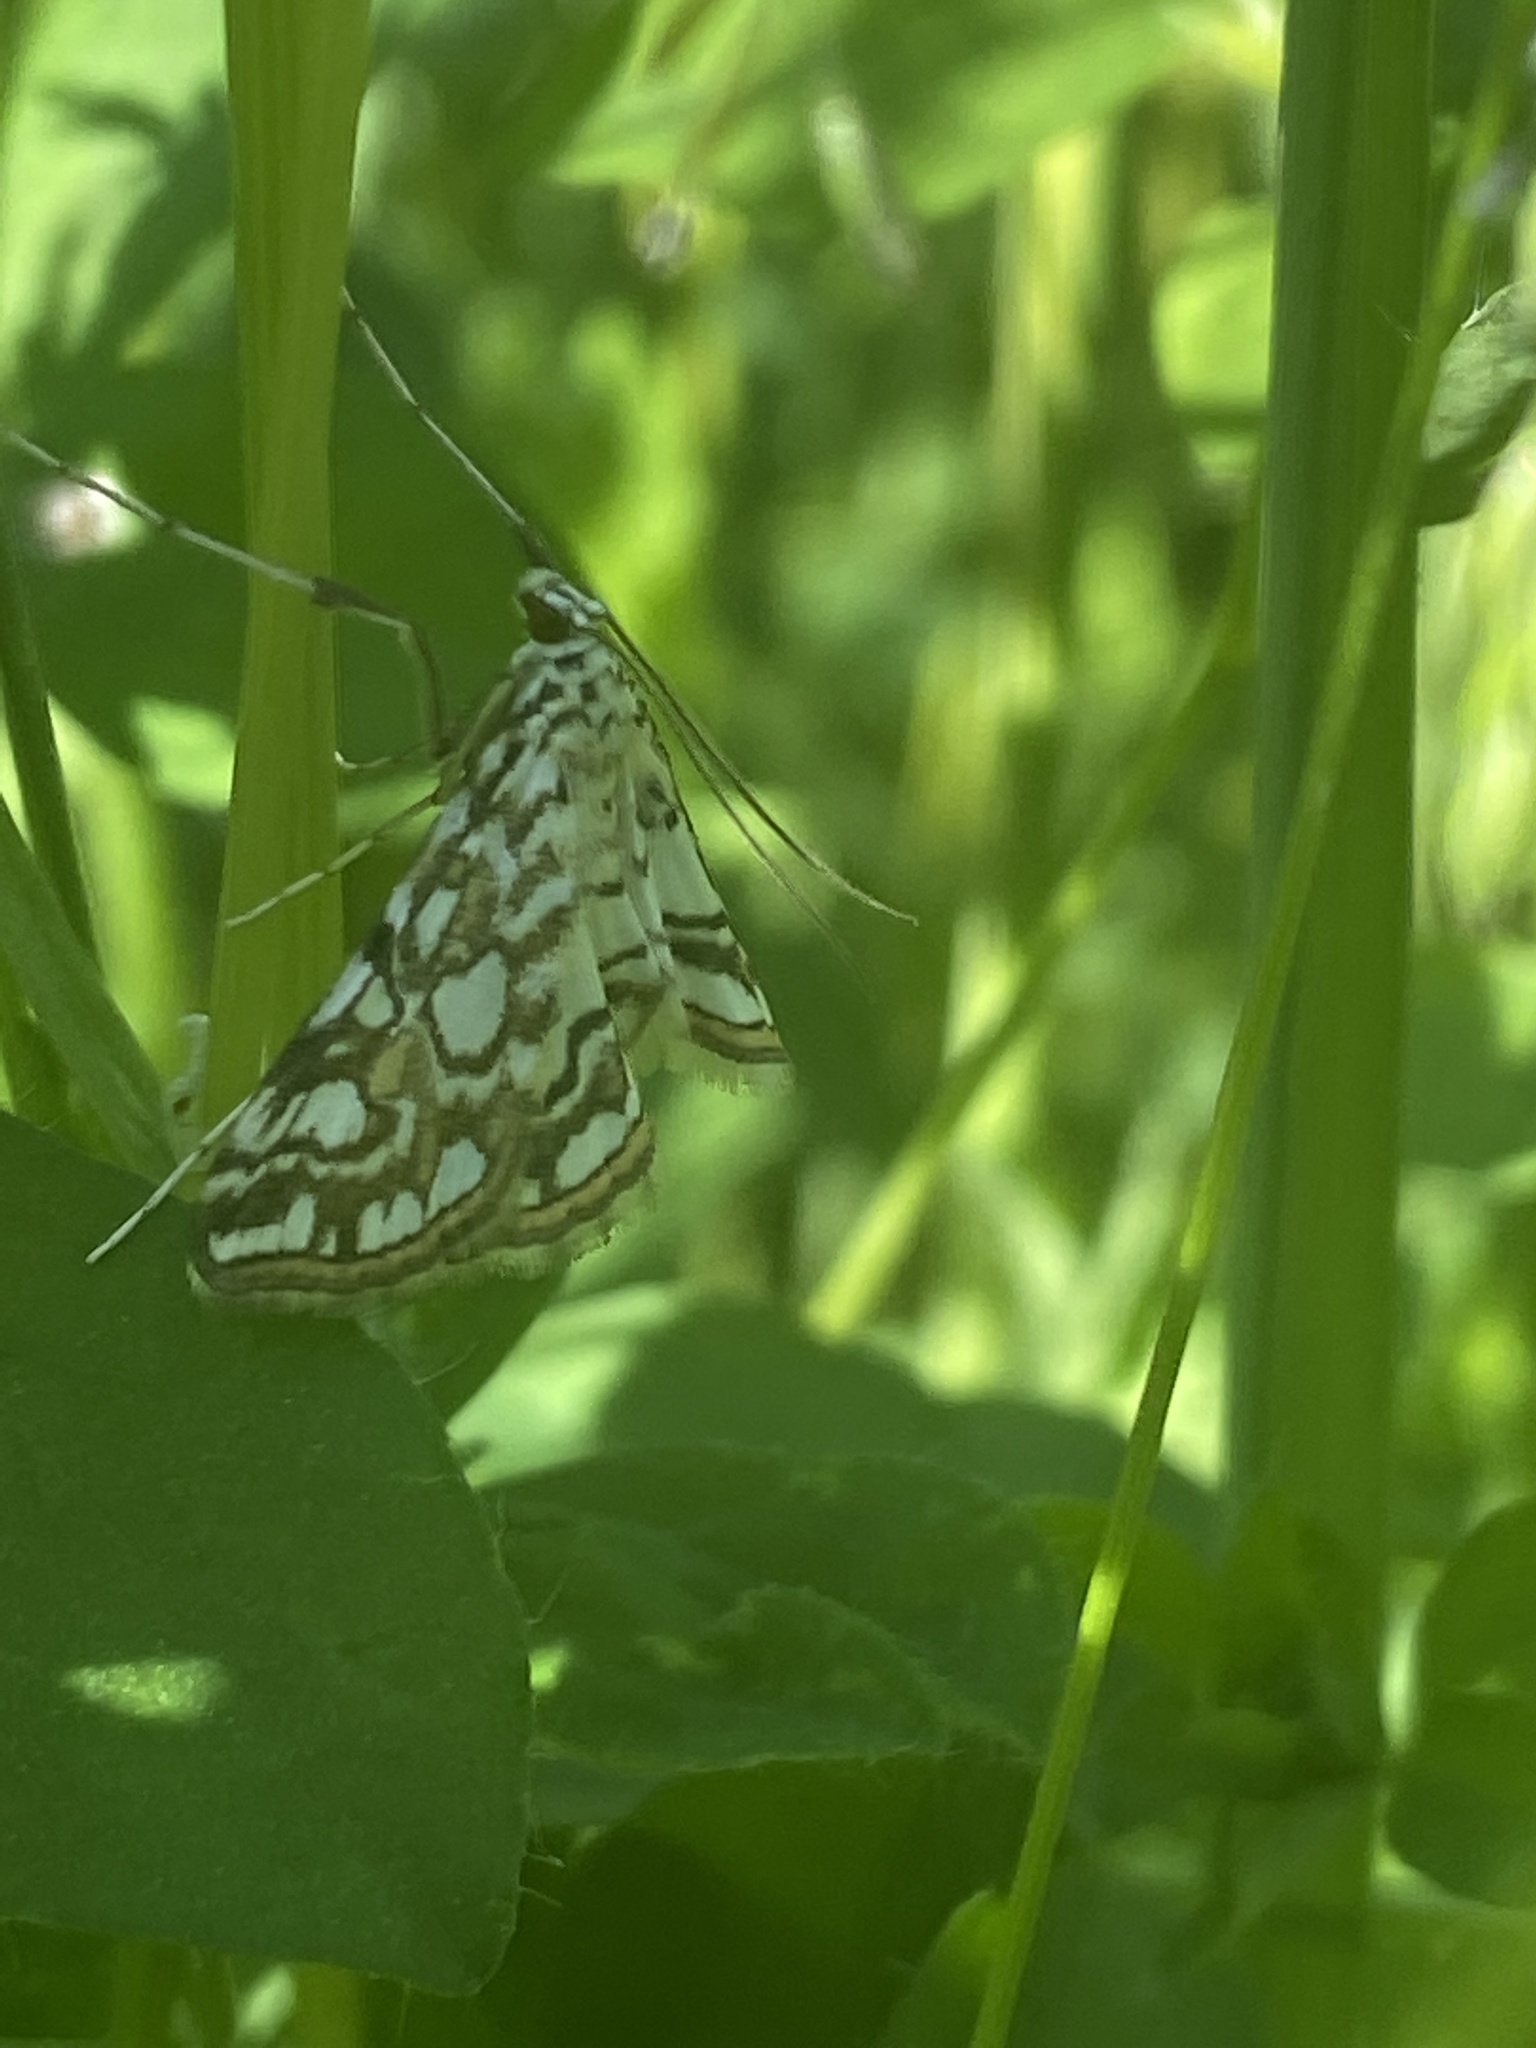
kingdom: Animalia
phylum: Arthropoda
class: Insecta
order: Lepidoptera
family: Crambidae
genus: Elophila
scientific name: Elophila nymphaeata
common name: Brown china-mark
